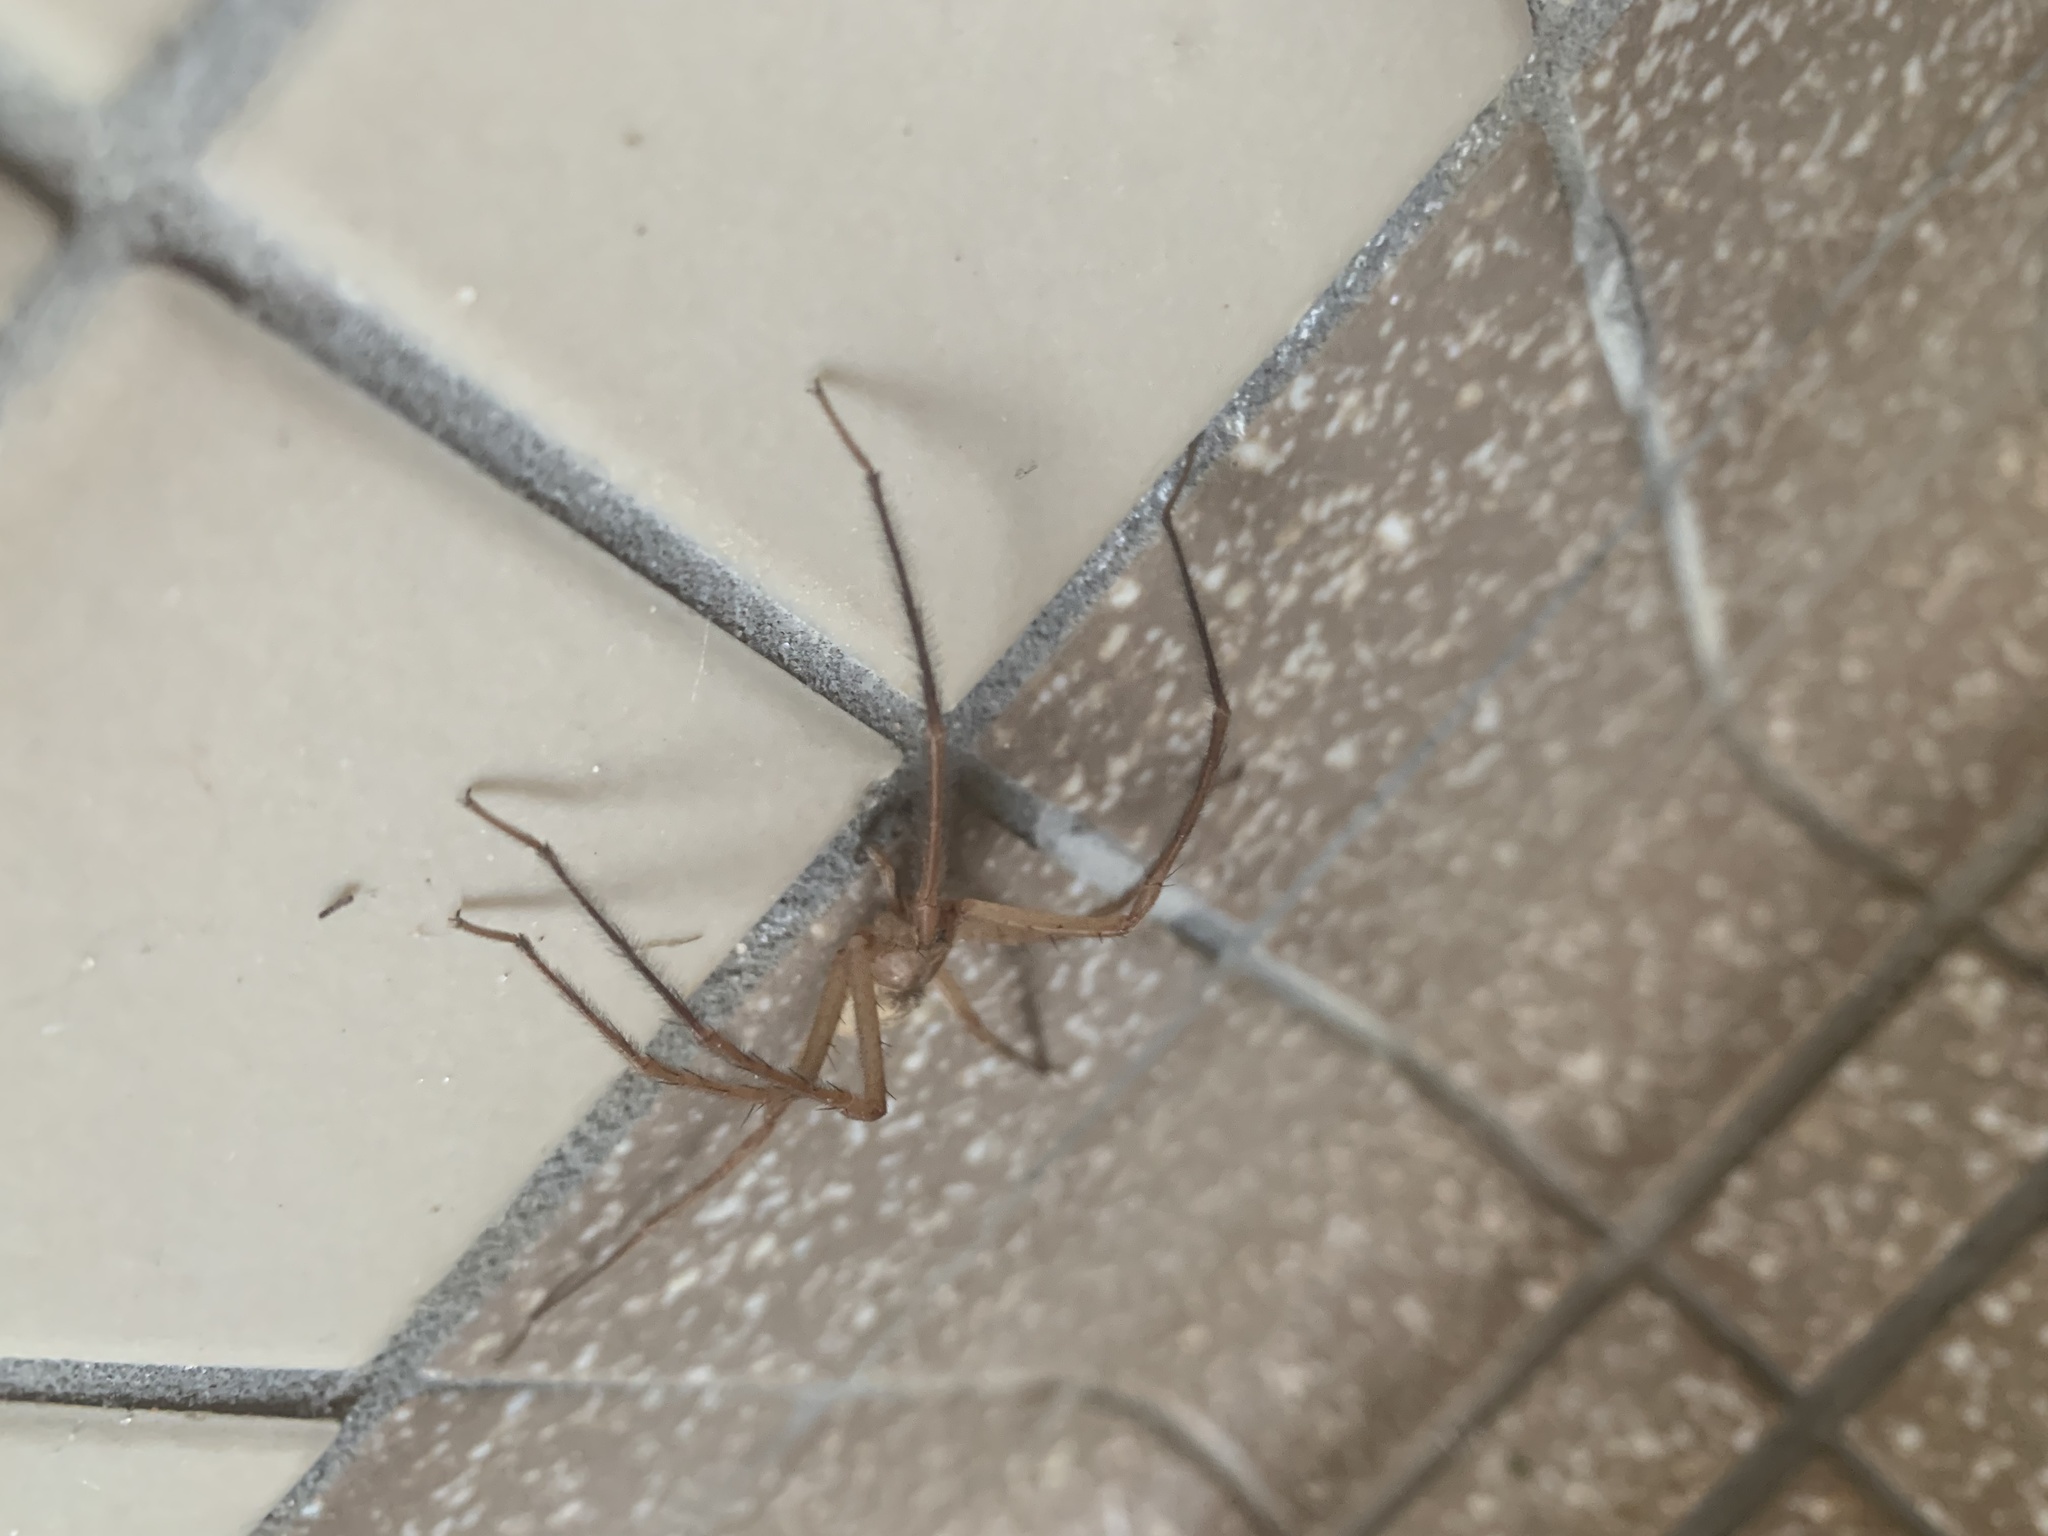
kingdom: Animalia
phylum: Arthropoda
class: Arachnida
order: Araneae
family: Pisauridae
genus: Pisaurina
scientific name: Pisaurina mira
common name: American nursery web spider
